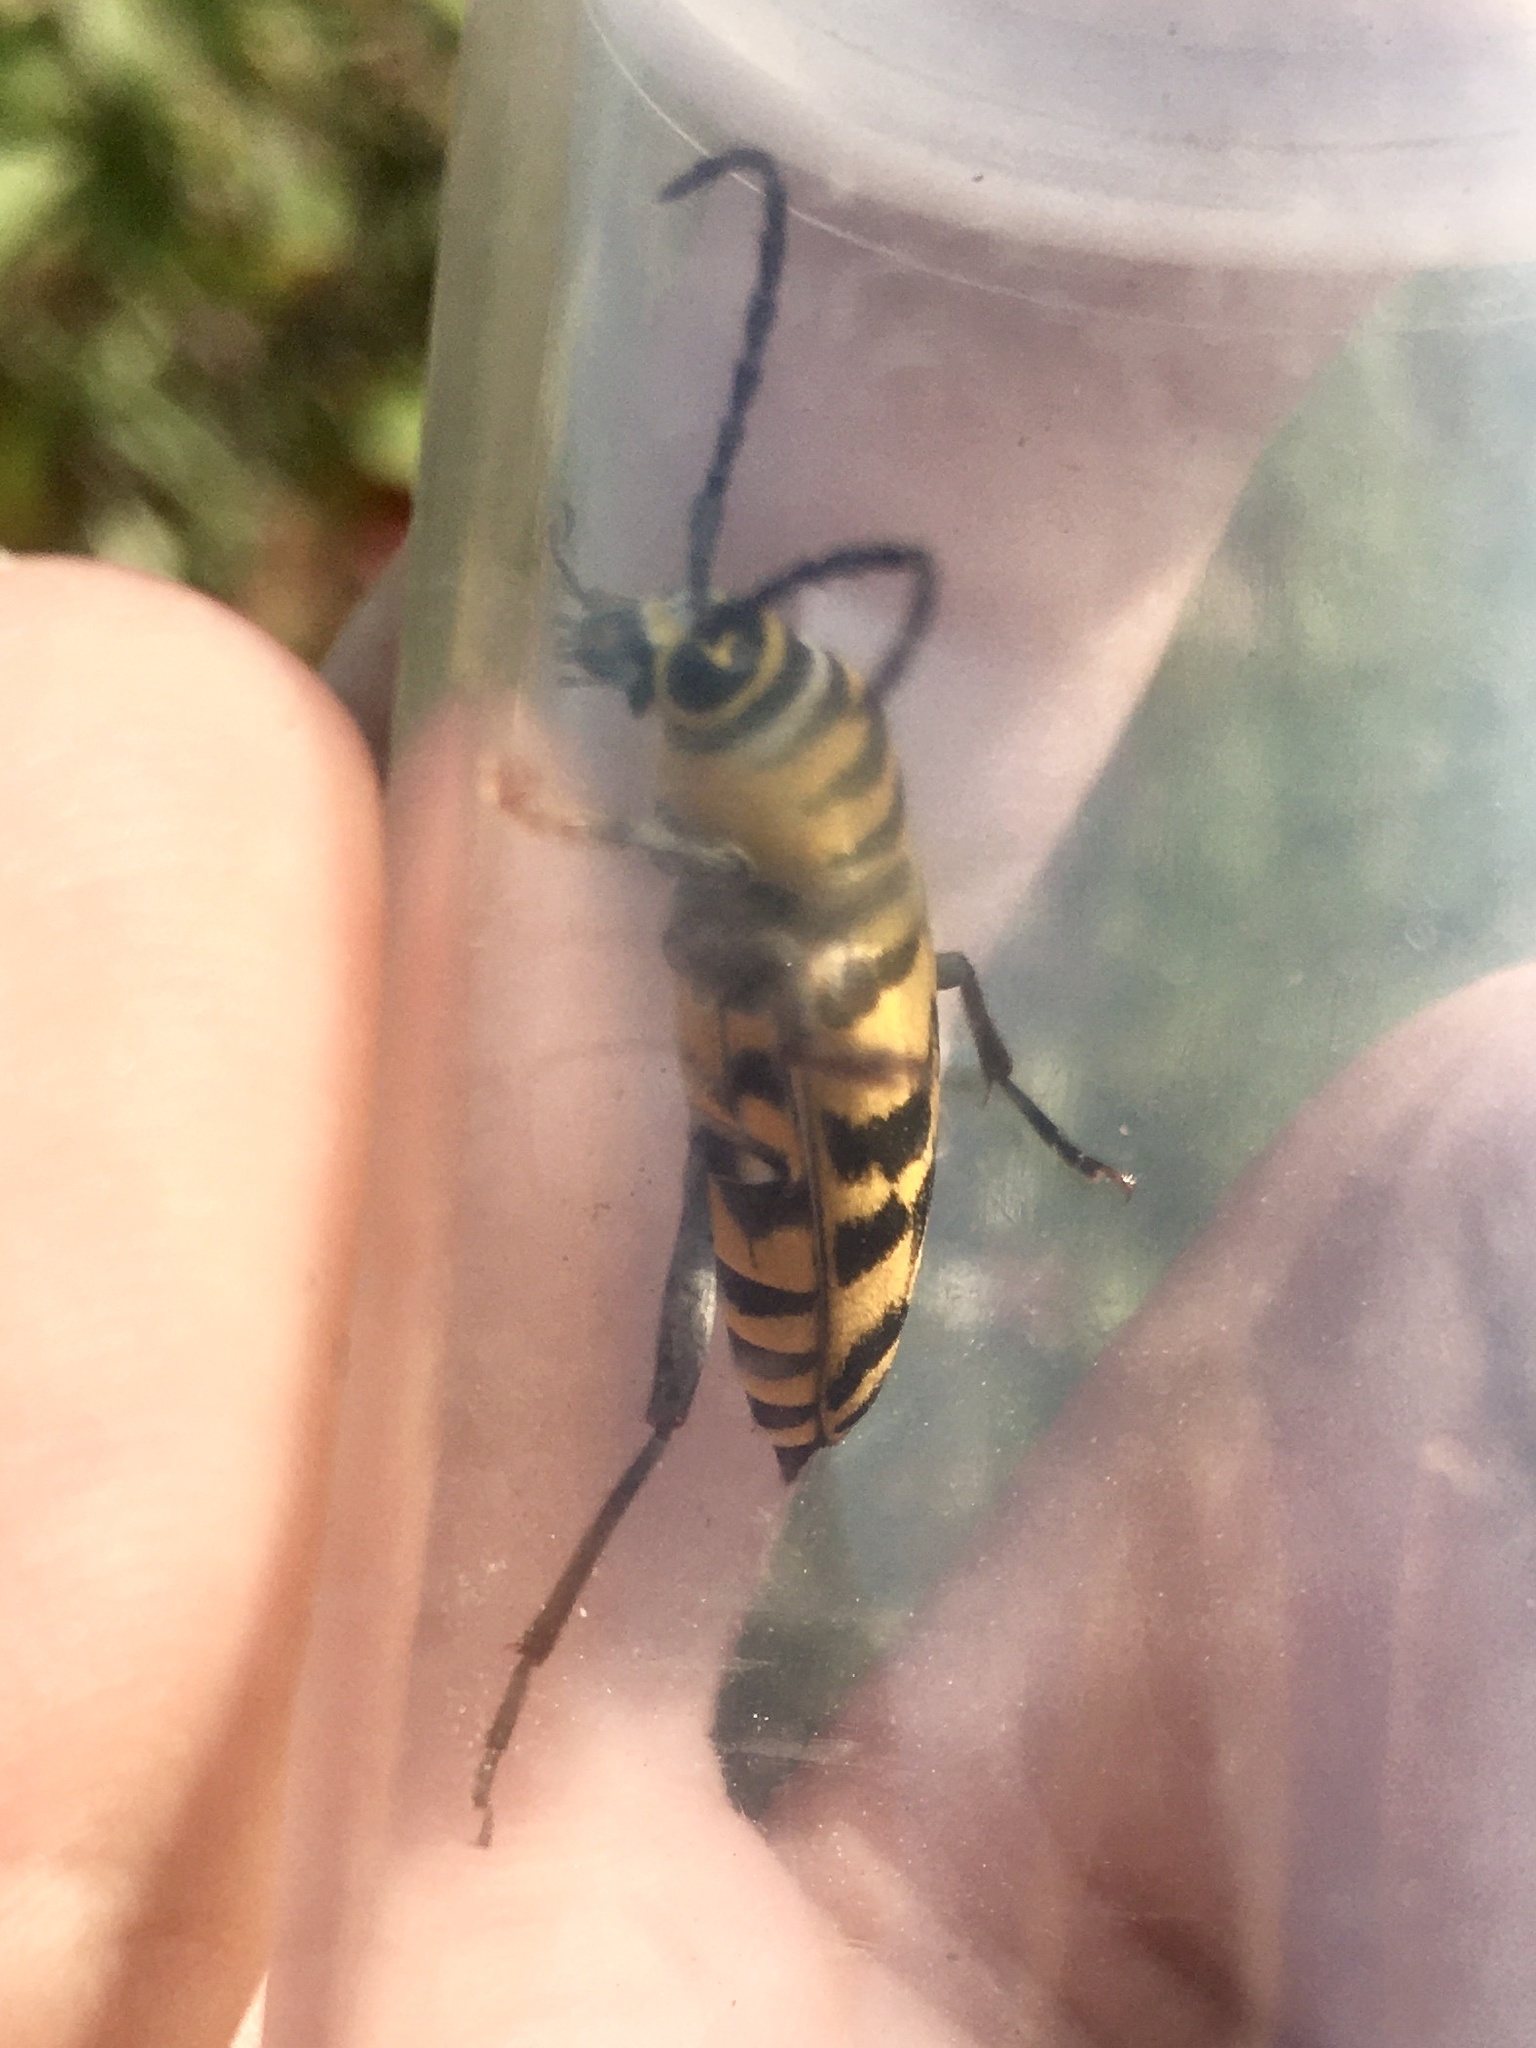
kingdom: Animalia
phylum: Arthropoda
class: Insecta
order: Coleoptera
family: Cerambycidae
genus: Megacyllene
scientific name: Megacyllene decora
